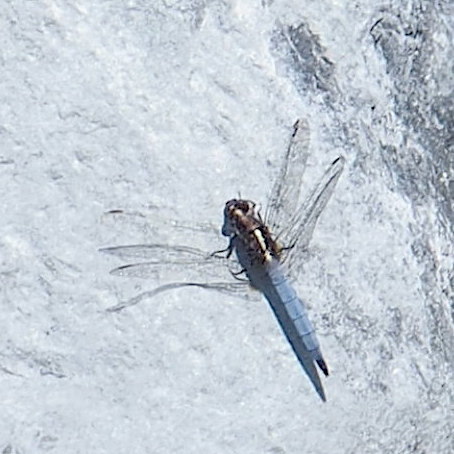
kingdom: Animalia
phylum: Arthropoda
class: Insecta
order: Odonata
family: Libellulidae
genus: Orthetrum
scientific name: Orthetrum glaucum
